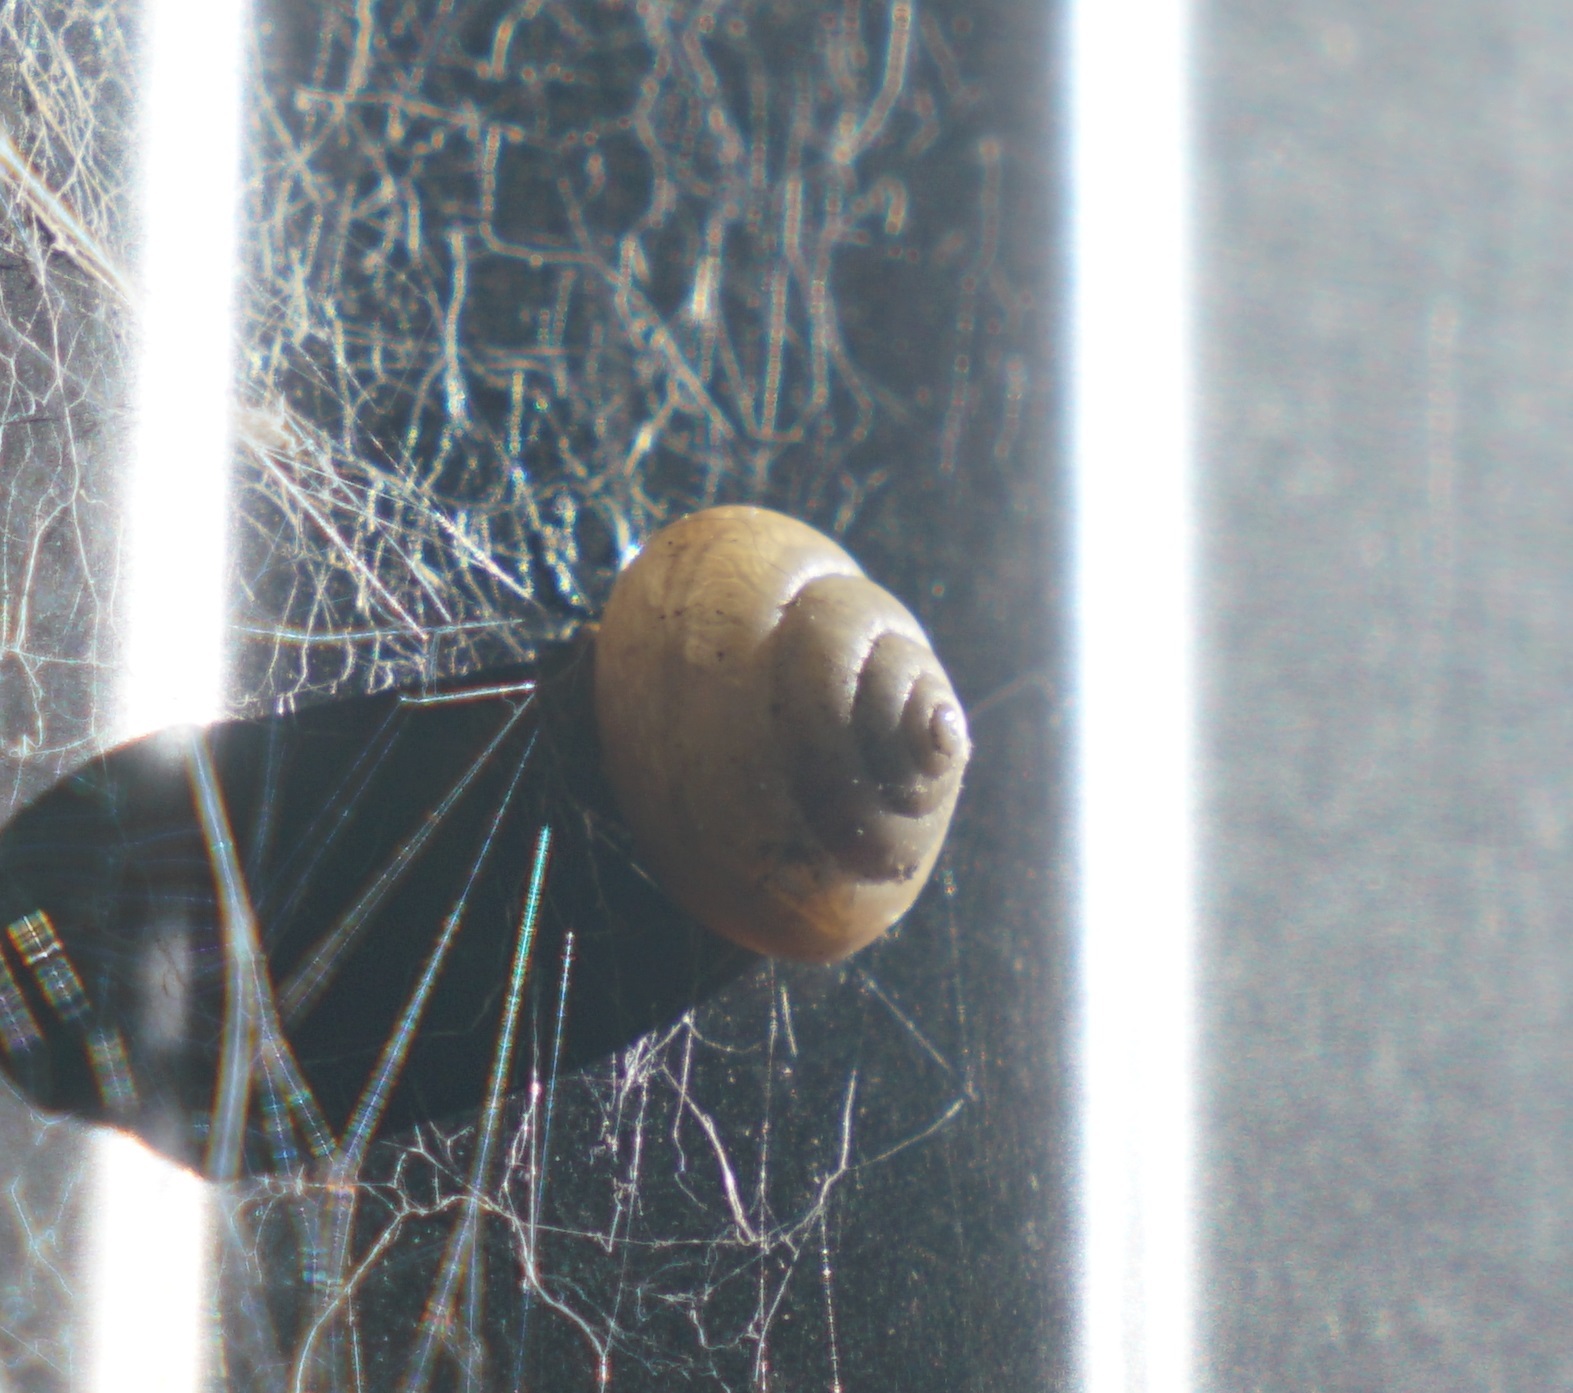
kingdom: Animalia
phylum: Mollusca
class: Gastropoda
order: Stylommatophora
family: Camaenidae
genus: Bradybaena
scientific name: Bradybaena similaris
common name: Asian trampsnail
